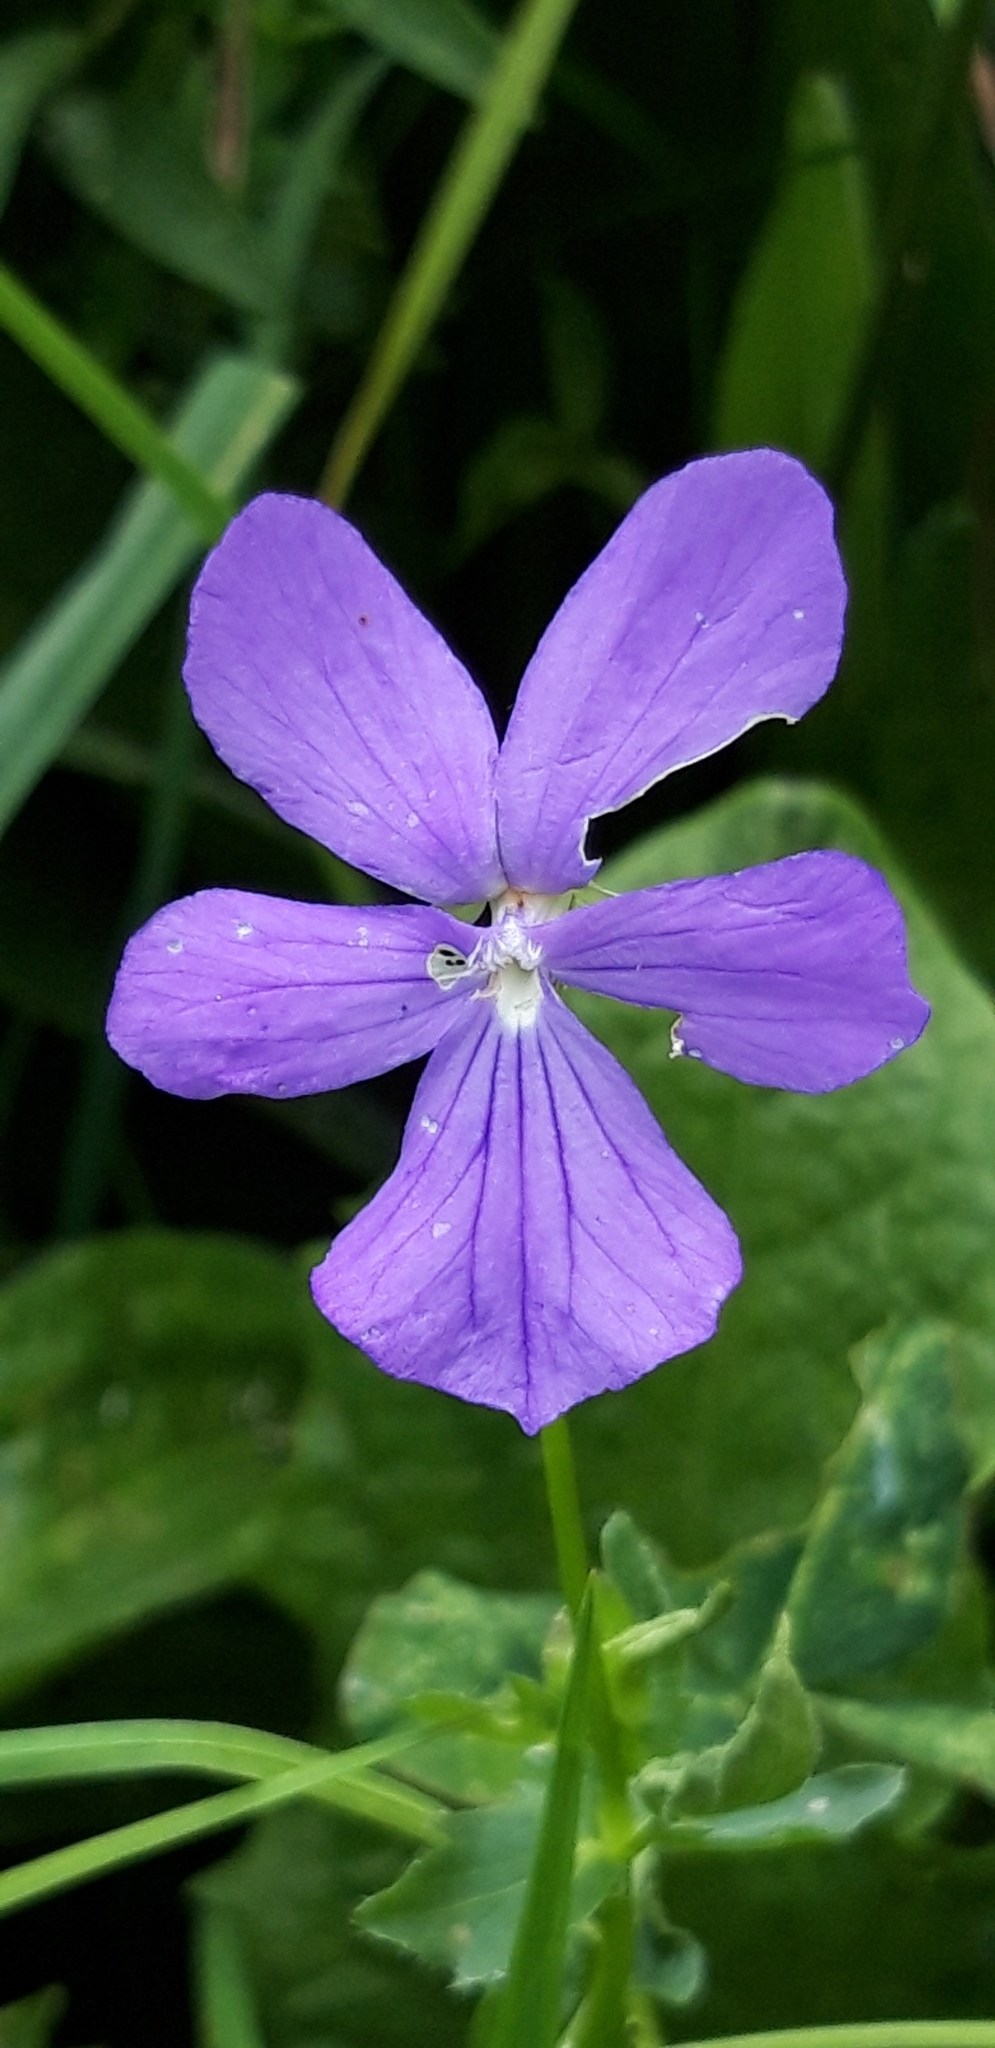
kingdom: Plantae
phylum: Tracheophyta
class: Magnoliopsida
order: Malpighiales
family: Violaceae
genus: Viola
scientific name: Viola
